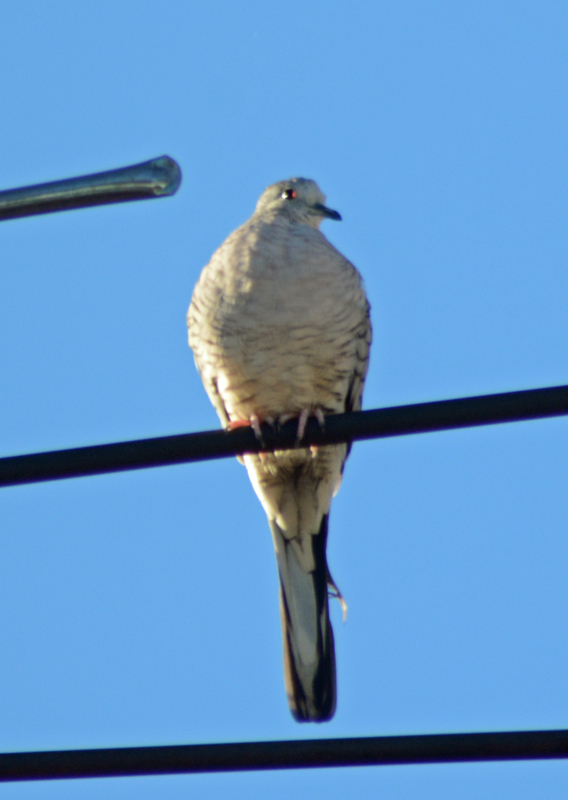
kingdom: Animalia
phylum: Chordata
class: Aves
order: Columbiformes
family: Columbidae
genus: Columbina
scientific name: Columbina inca
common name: Inca dove
